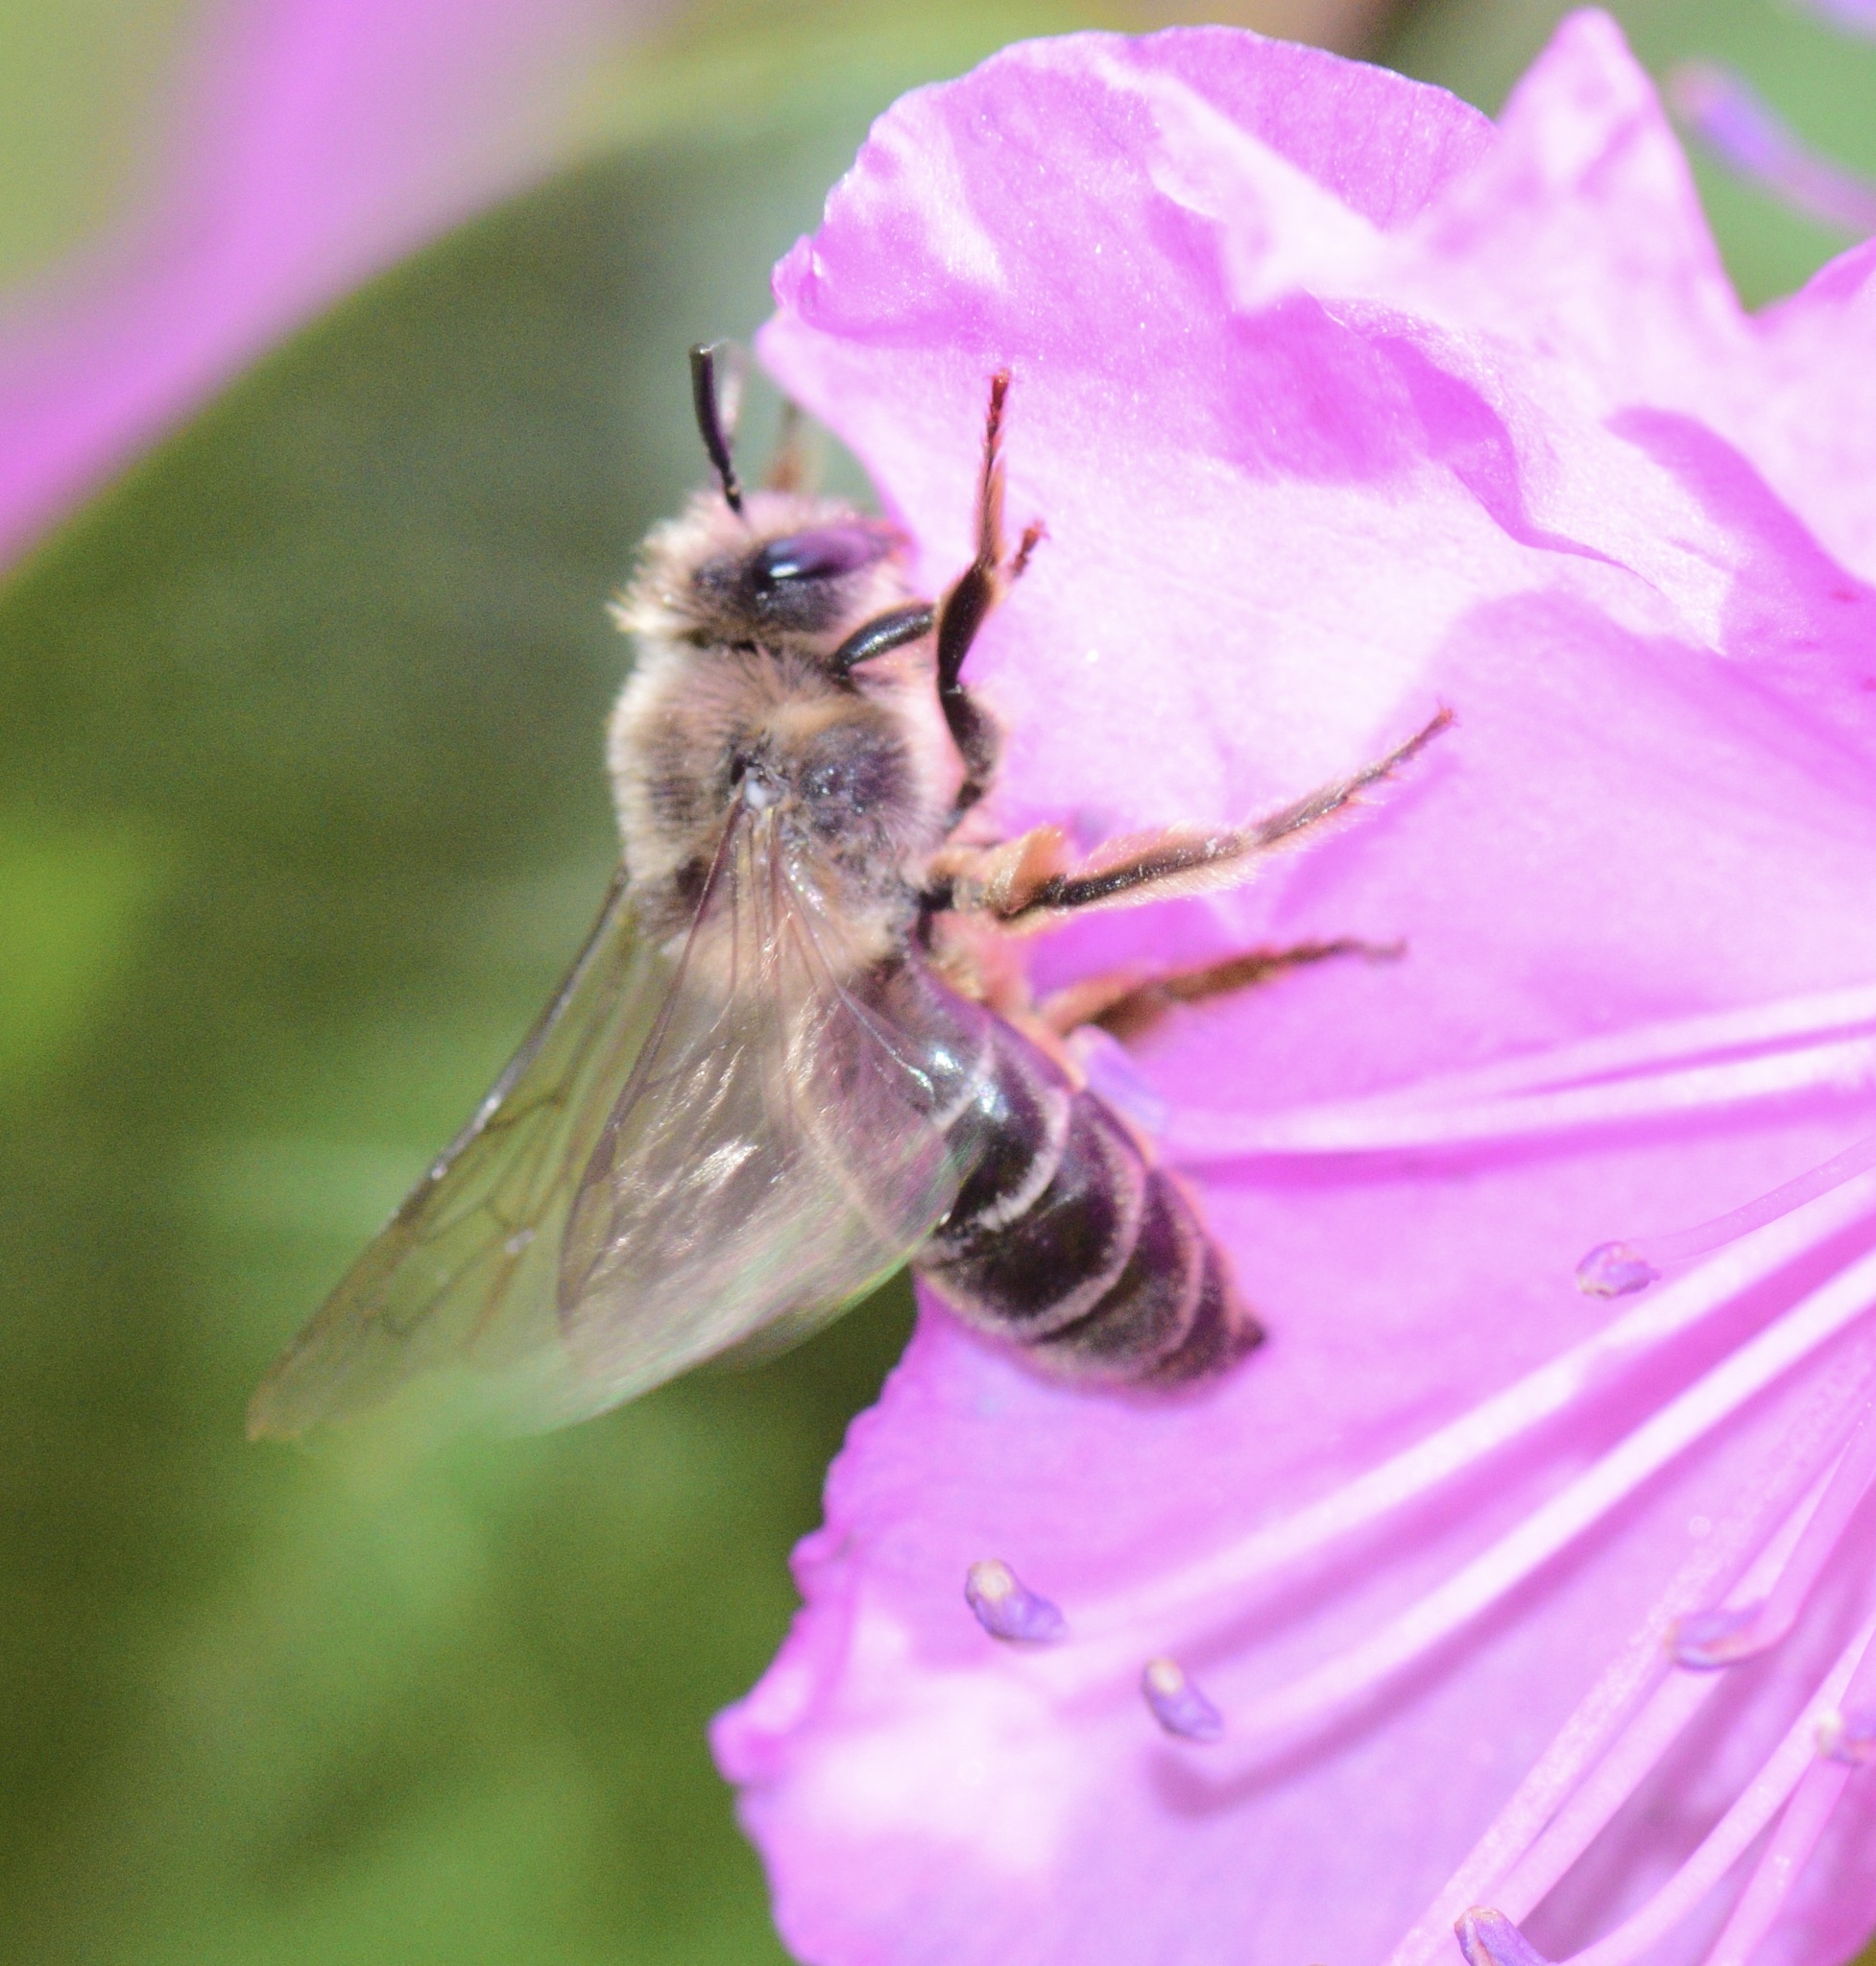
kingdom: Animalia
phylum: Arthropoda
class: Insecta
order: Hymenoptera
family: Colletidae
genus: Colletes
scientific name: Colletes inaequalis
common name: Unequal cellophane bee
